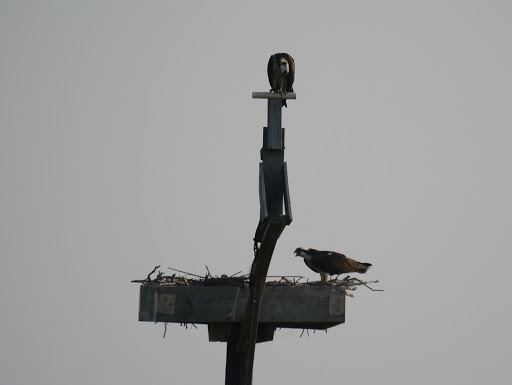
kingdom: Animalia
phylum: Chordata
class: Aves
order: Accipitriformes
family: Pandionidae
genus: Pandion
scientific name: Pandion haliaetus
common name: Osprey
